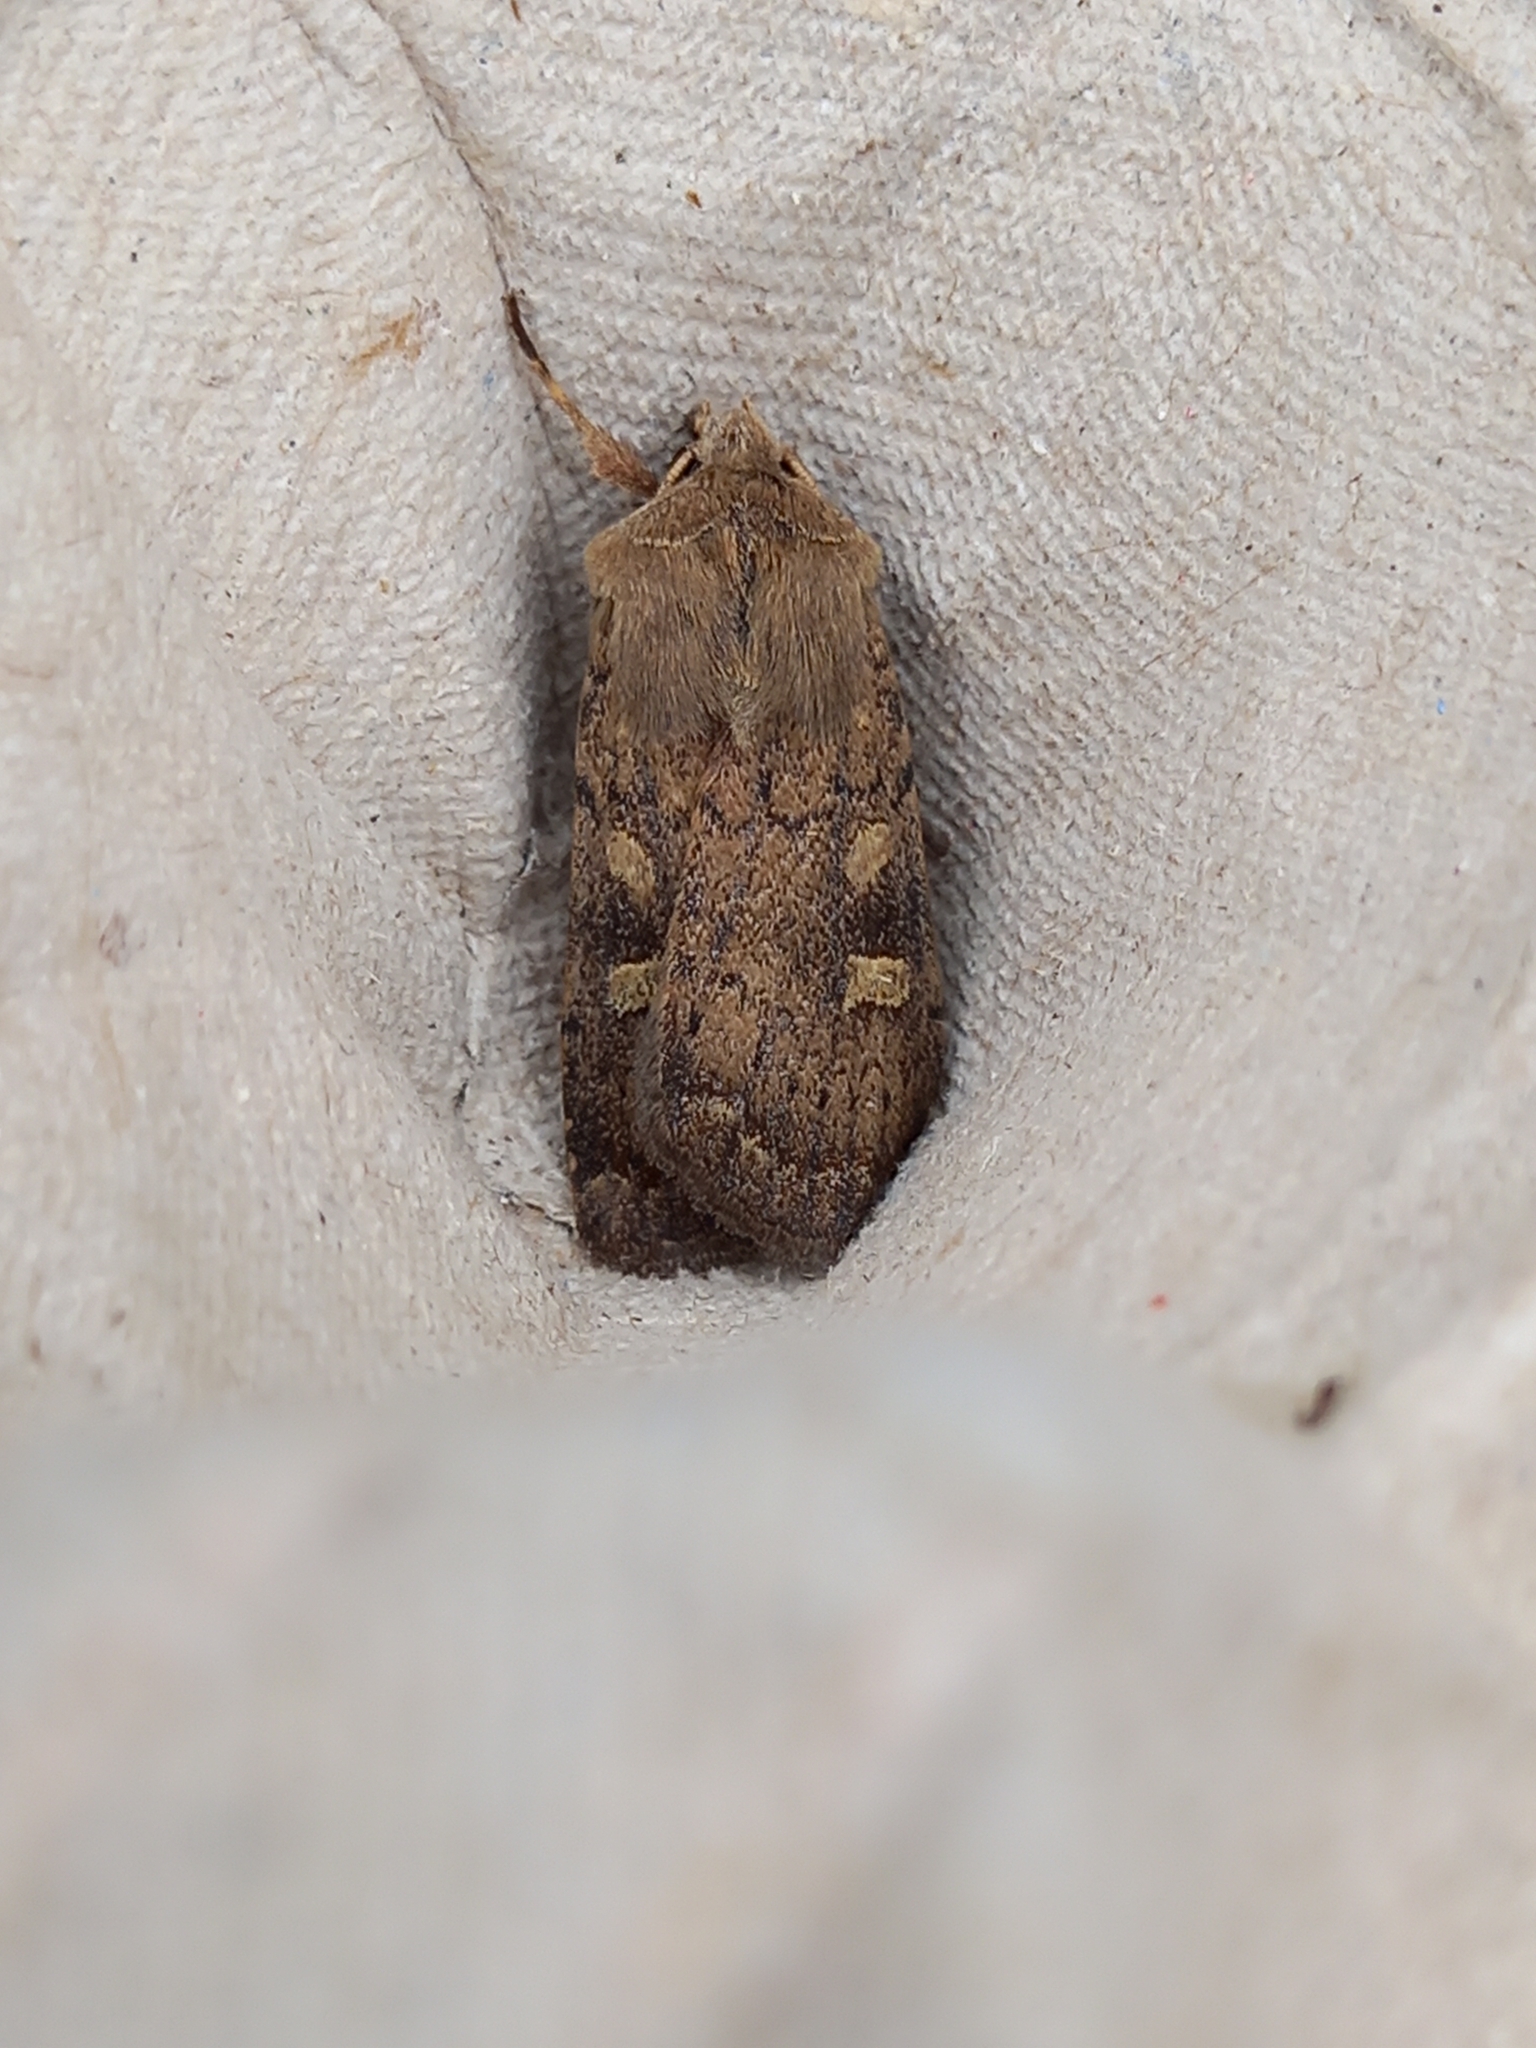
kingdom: Animalia
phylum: Arthropoda
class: Insecta
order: Lepidoptera
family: Noctuidae
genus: Xestia
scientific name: Xestia xanthographa
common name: Square-spot rustic
